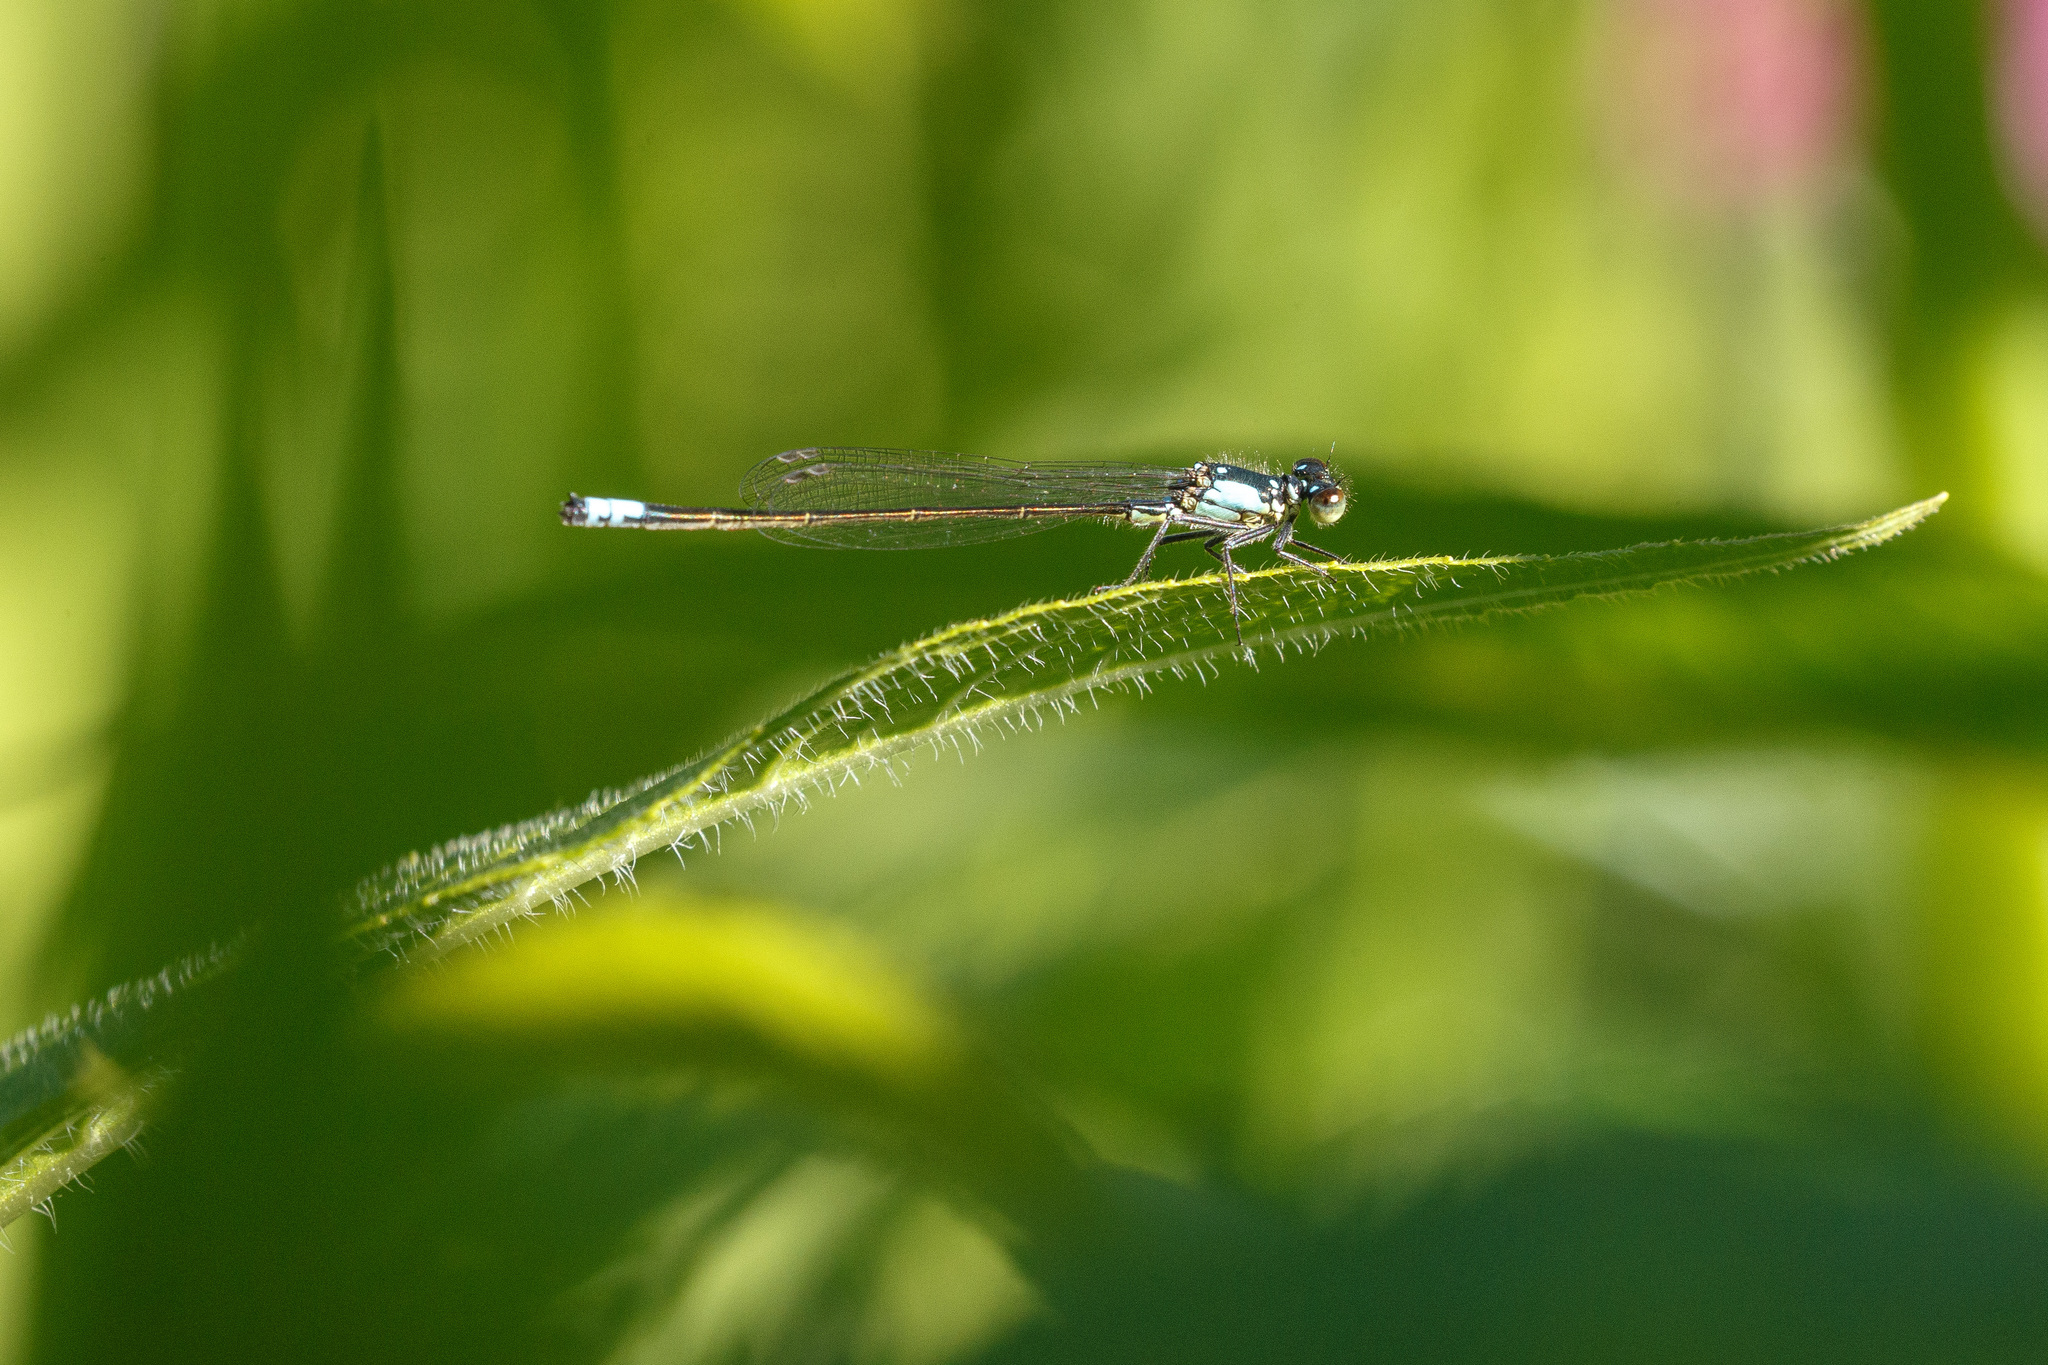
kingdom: Animalia
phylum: Arthropoda
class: Insecta
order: Odonata
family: Coenagrionidae
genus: Ischnura
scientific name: Ischnura cervula
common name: Pacific forktail
